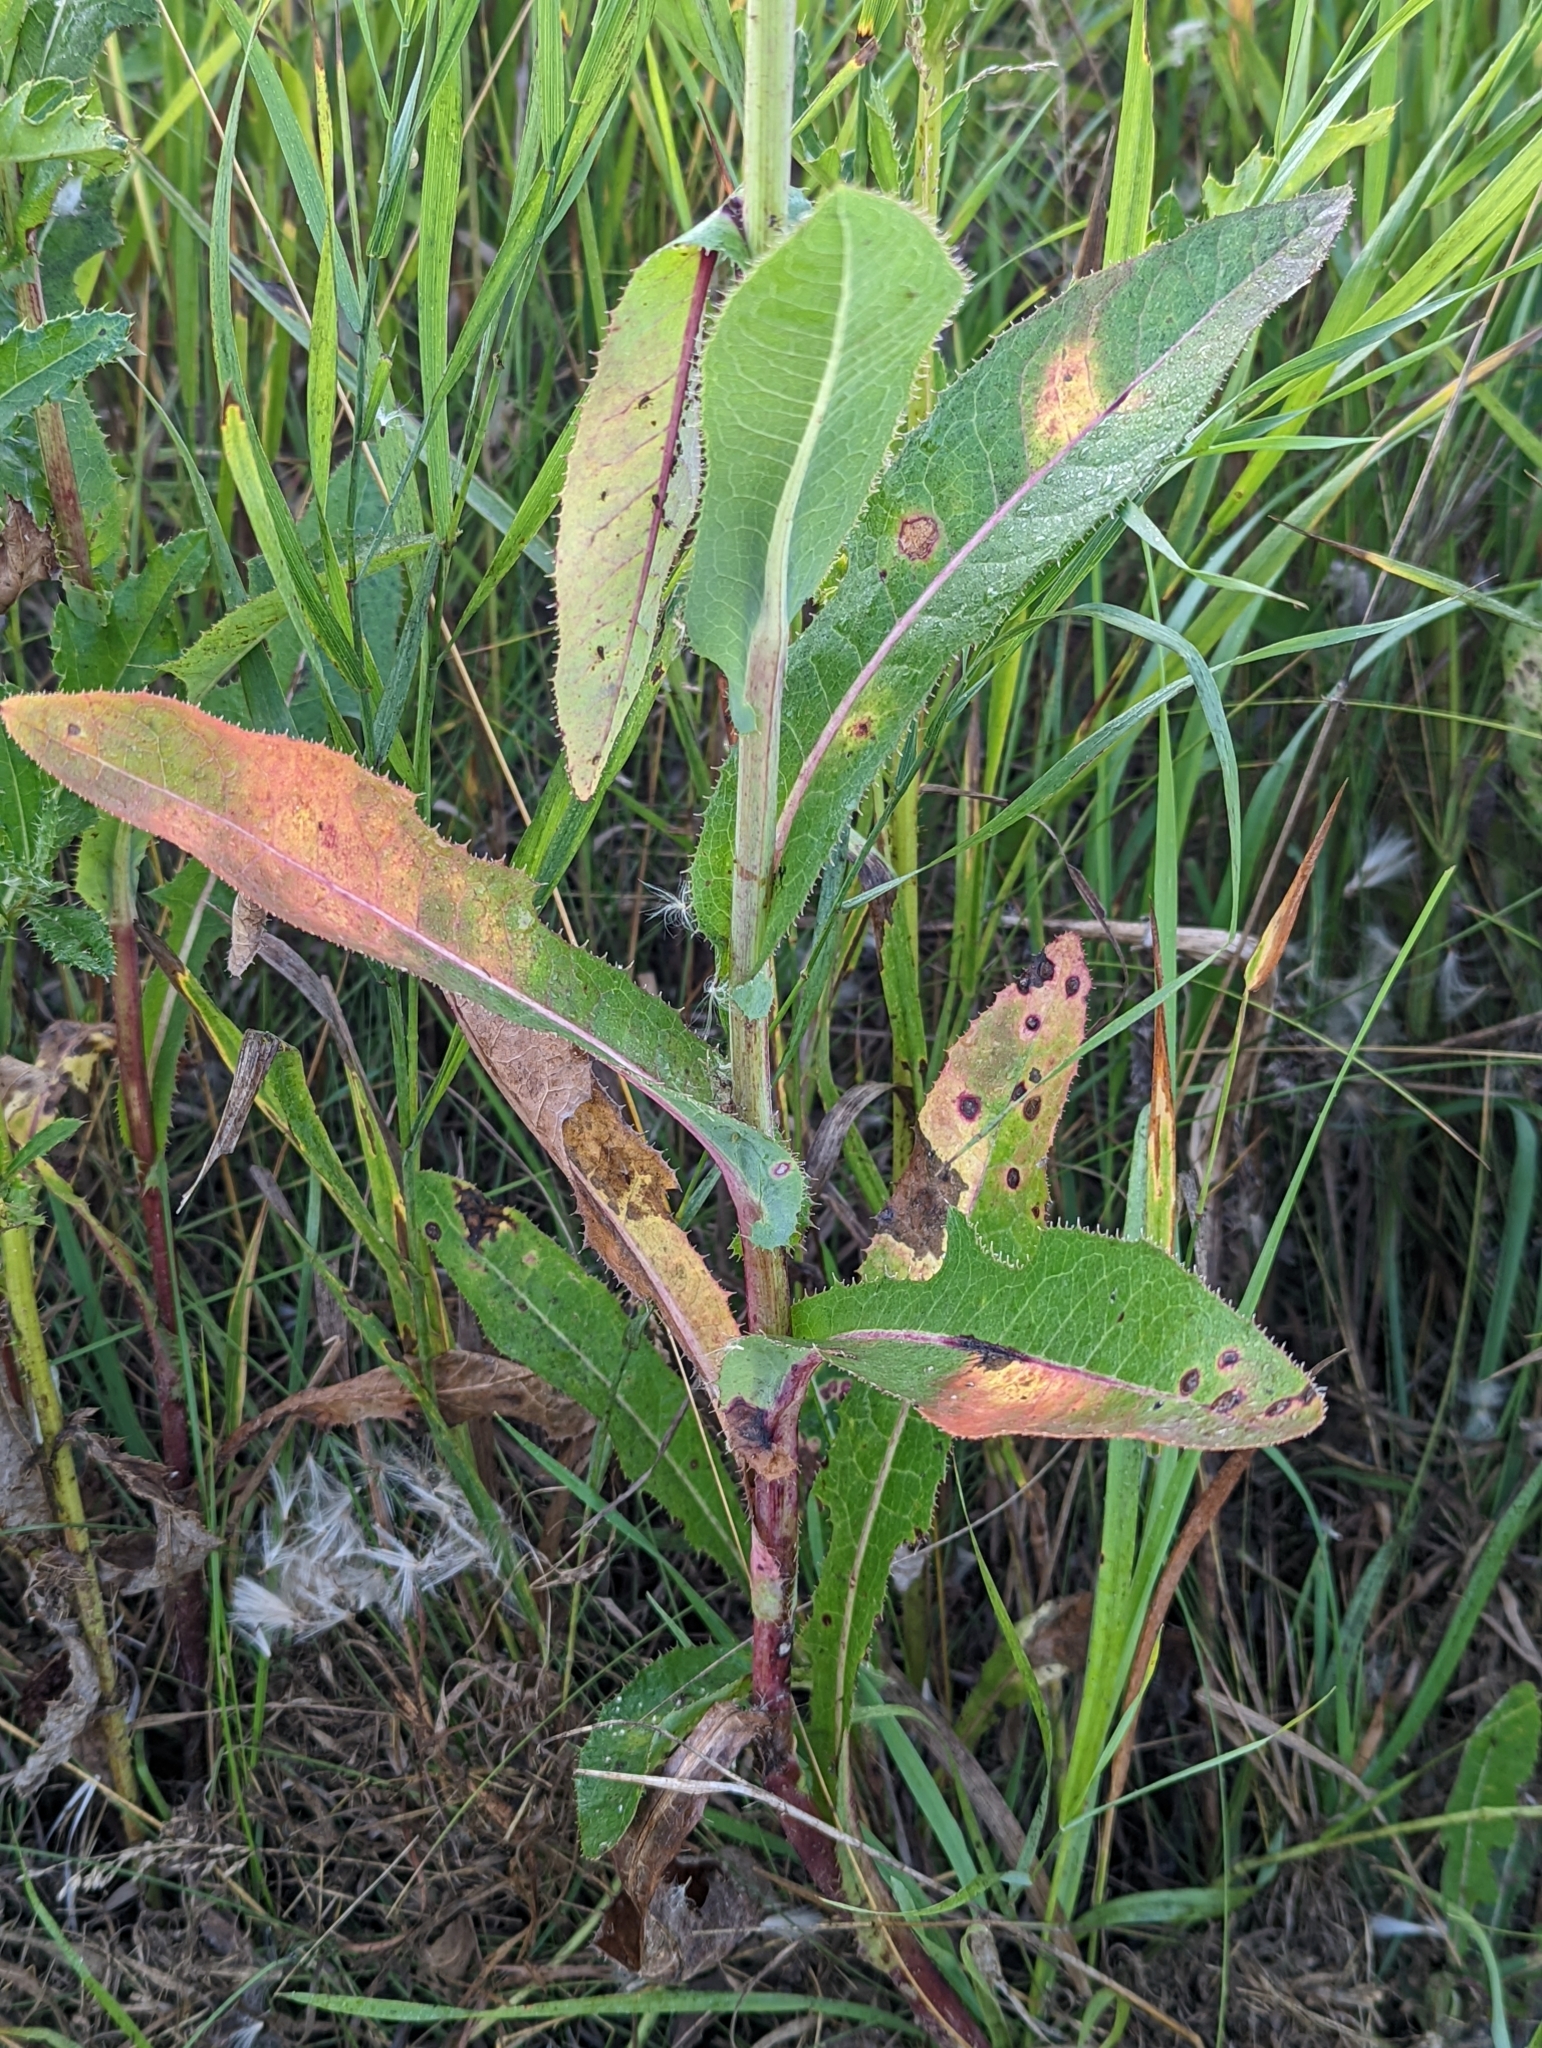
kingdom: Plantae
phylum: Tracheophyta
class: Magnoliopsida
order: Asterales
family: Asteraceae
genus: Sonchus
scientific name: Sonchus arvensis
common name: Perennial sow-thistle
